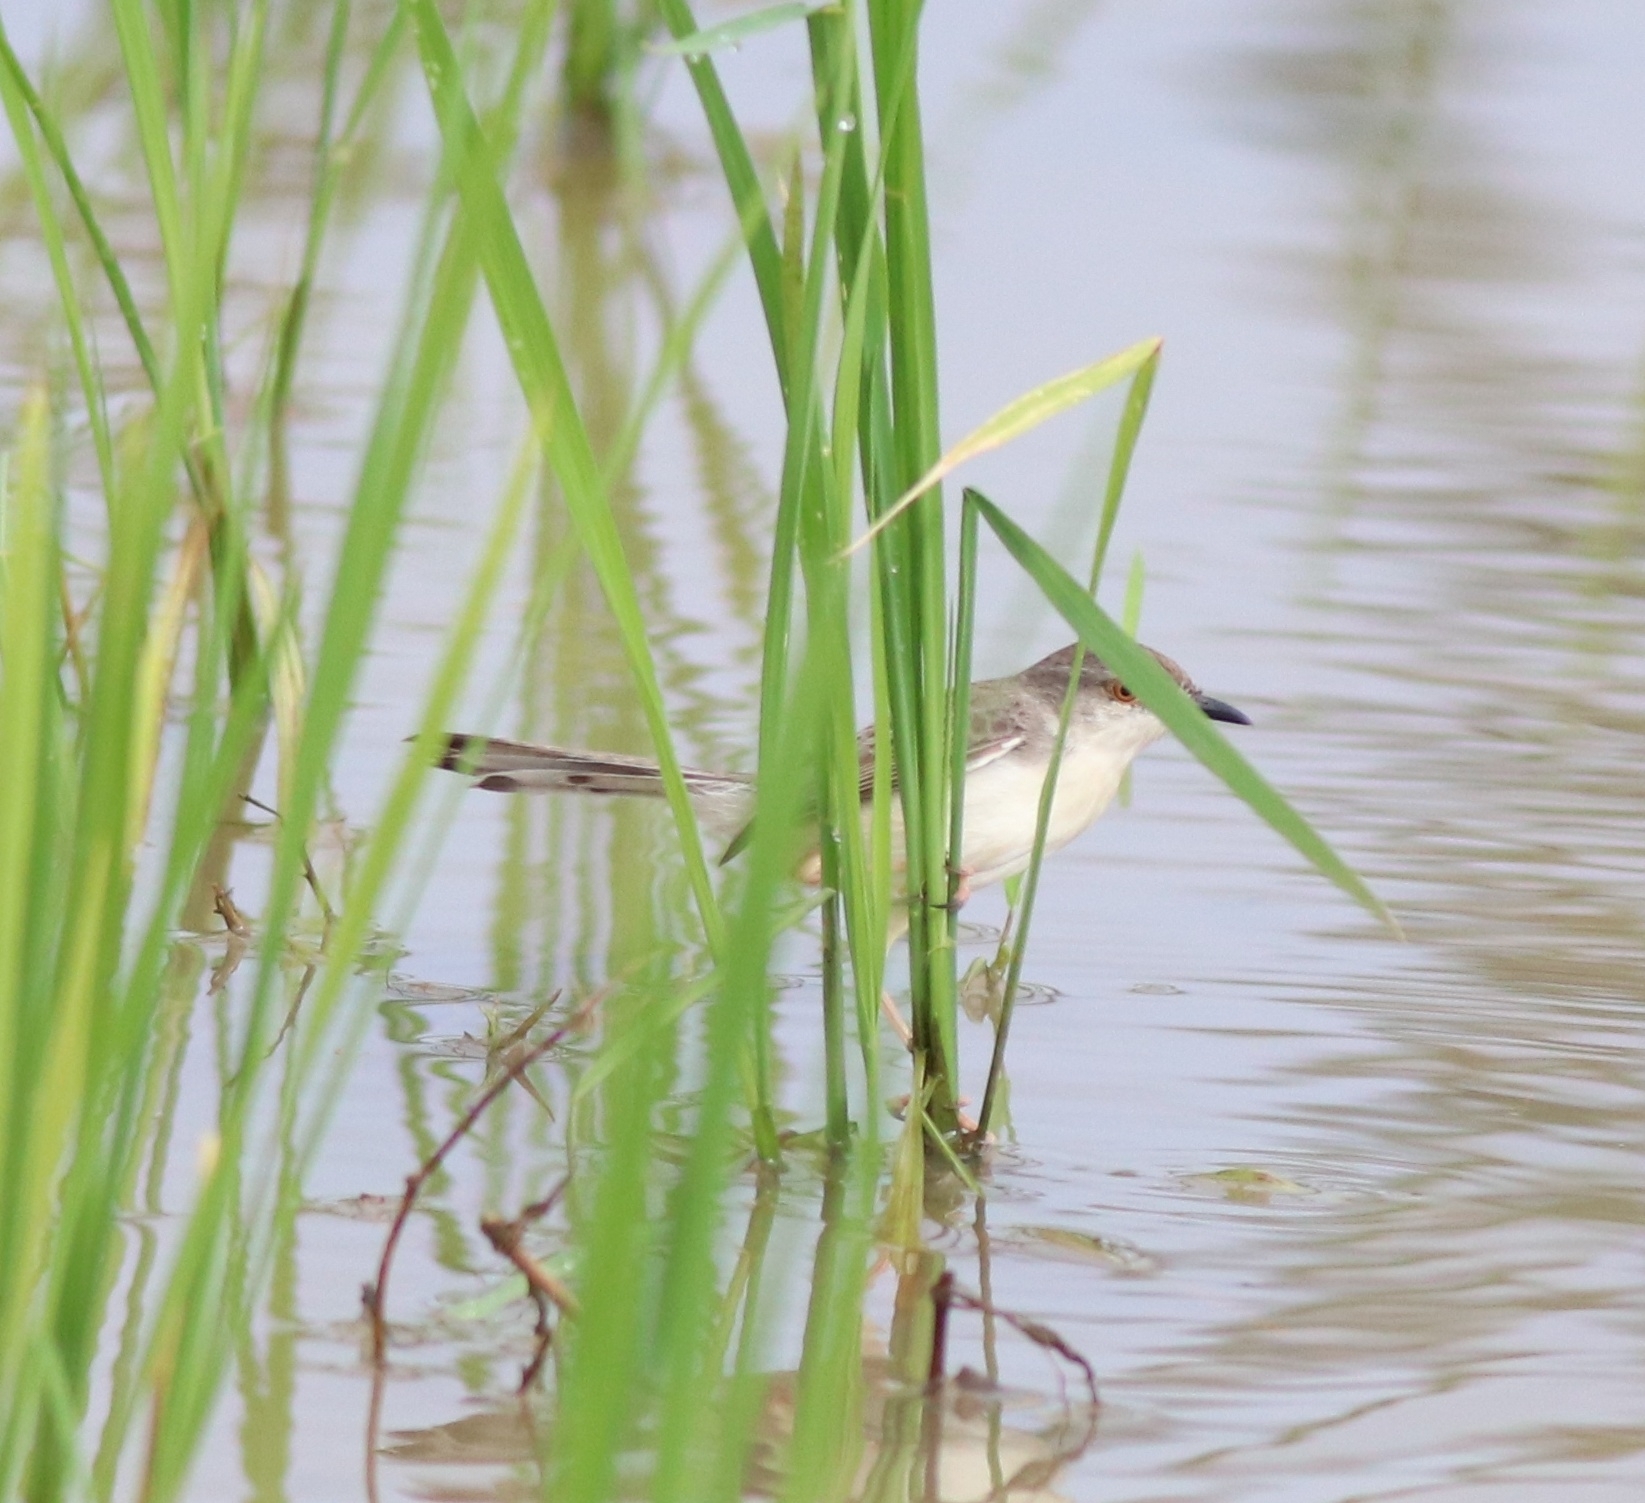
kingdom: Animalia
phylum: Chordata
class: Aves
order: Passeriformes
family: Cisticolidae
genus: Prinia
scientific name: Prinia inornata
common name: Plain prinia
